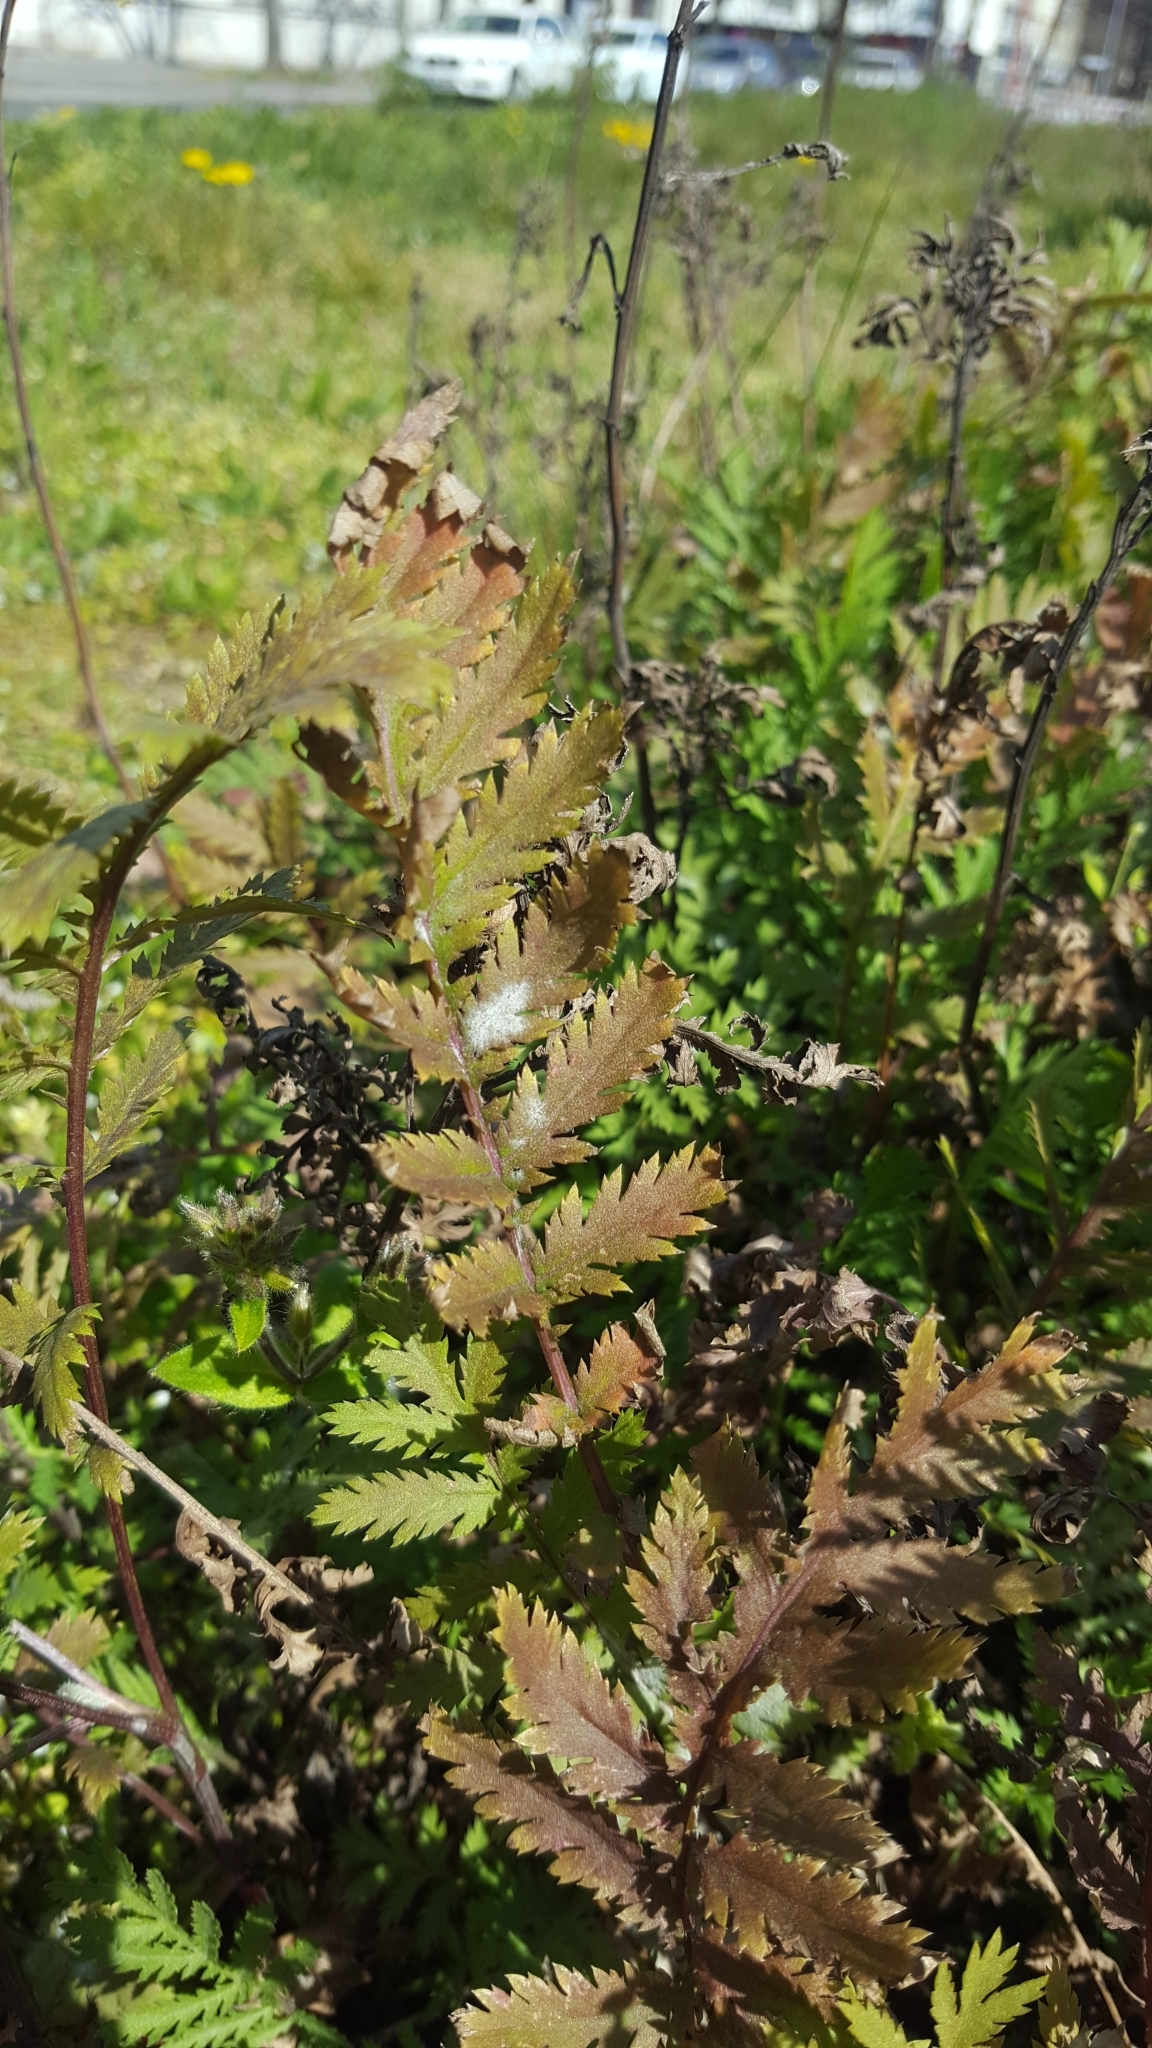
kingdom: Plantae
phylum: Tracheophyta
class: Magnoliopsida
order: Asterales
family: Asteraceae
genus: Tanacetum
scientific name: Tanacetum vulgare
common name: Common tansy
